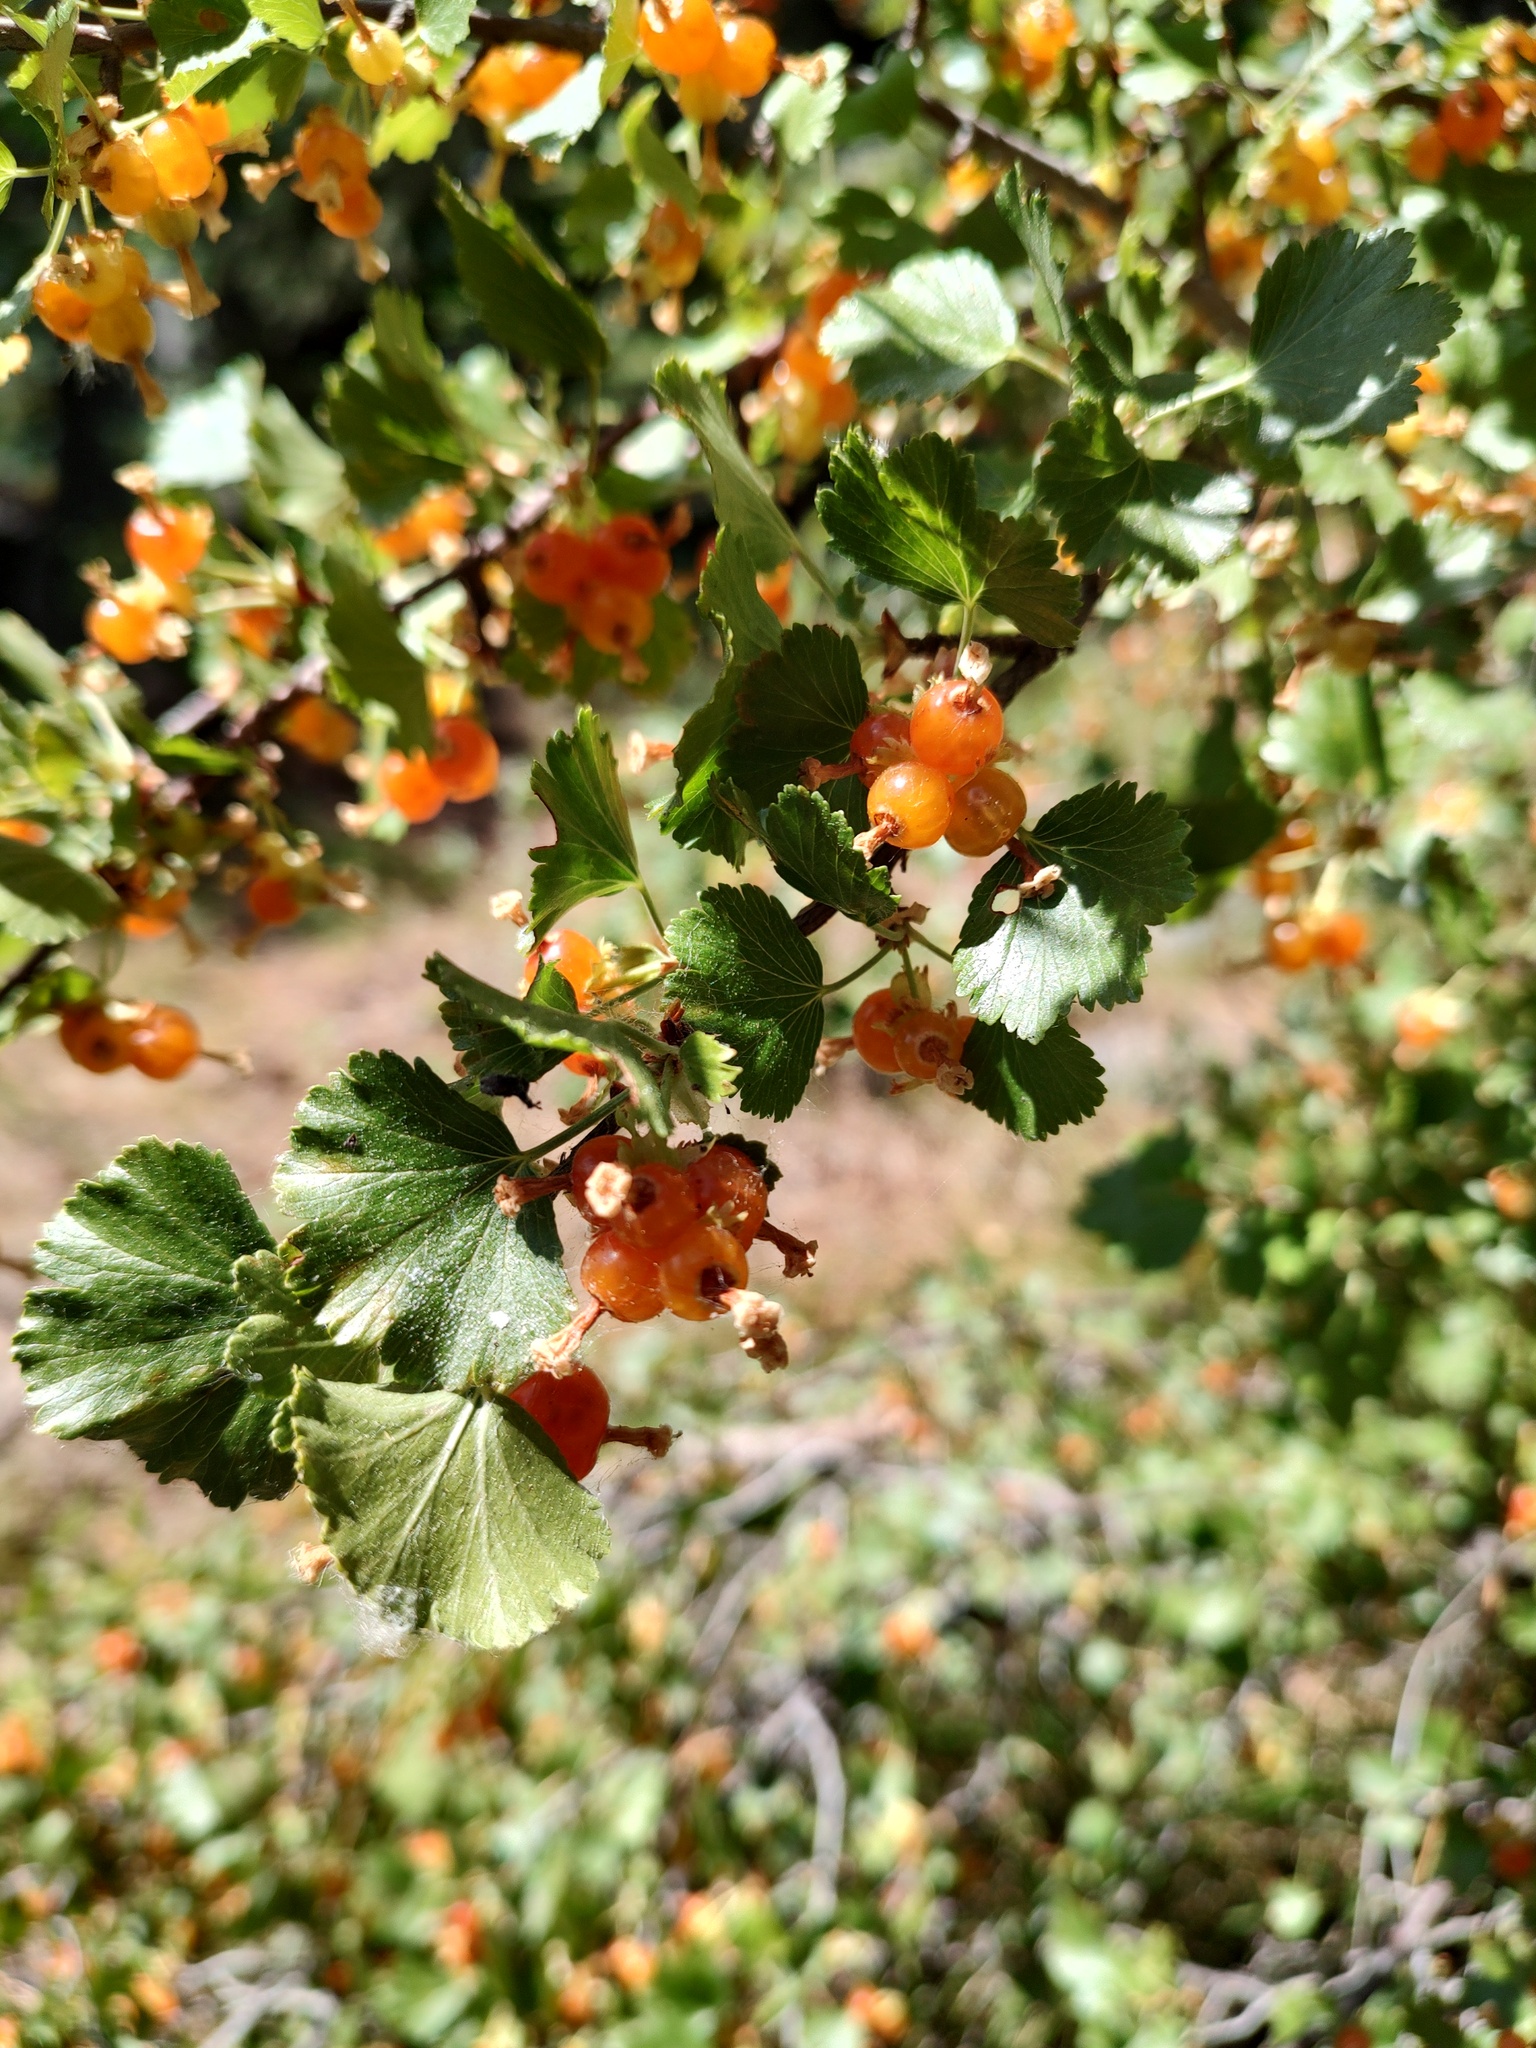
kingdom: Plantae
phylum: Tracheophyta
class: Magnoliopsida
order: Saxifragales
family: Grossulariaceae
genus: Ribes
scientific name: Ribes cereum
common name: Wax currant
